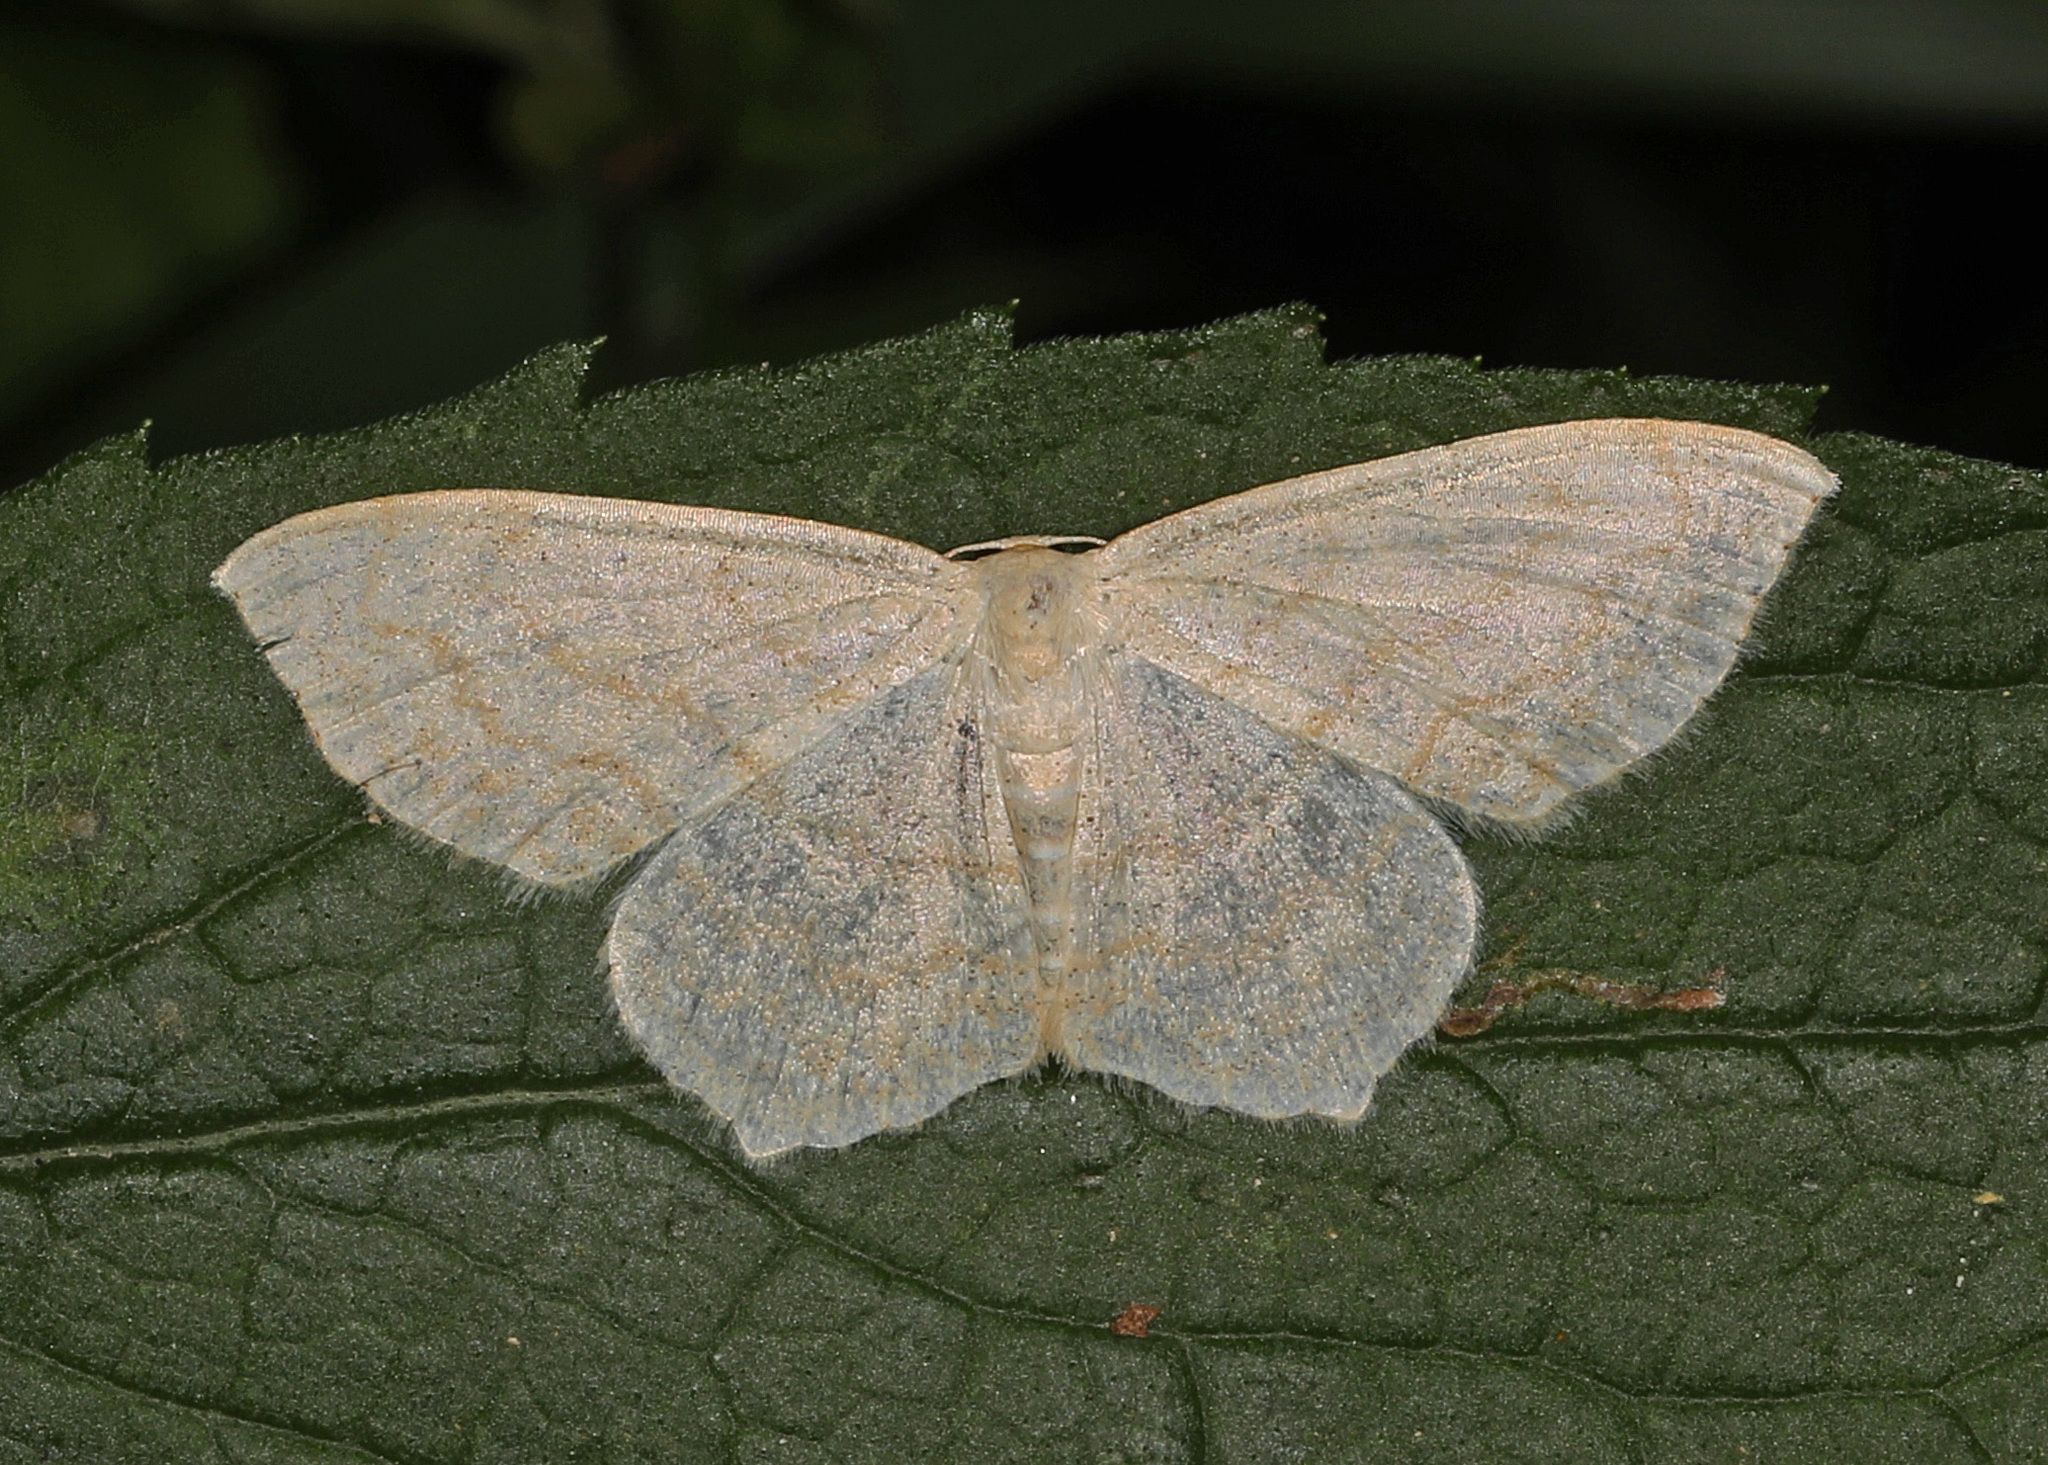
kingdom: Animalia
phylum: Arthropoda
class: Insecta
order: Lepidoptera
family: Geometridae
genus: Scopula
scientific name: Scopula limboundata
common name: Large lace border
